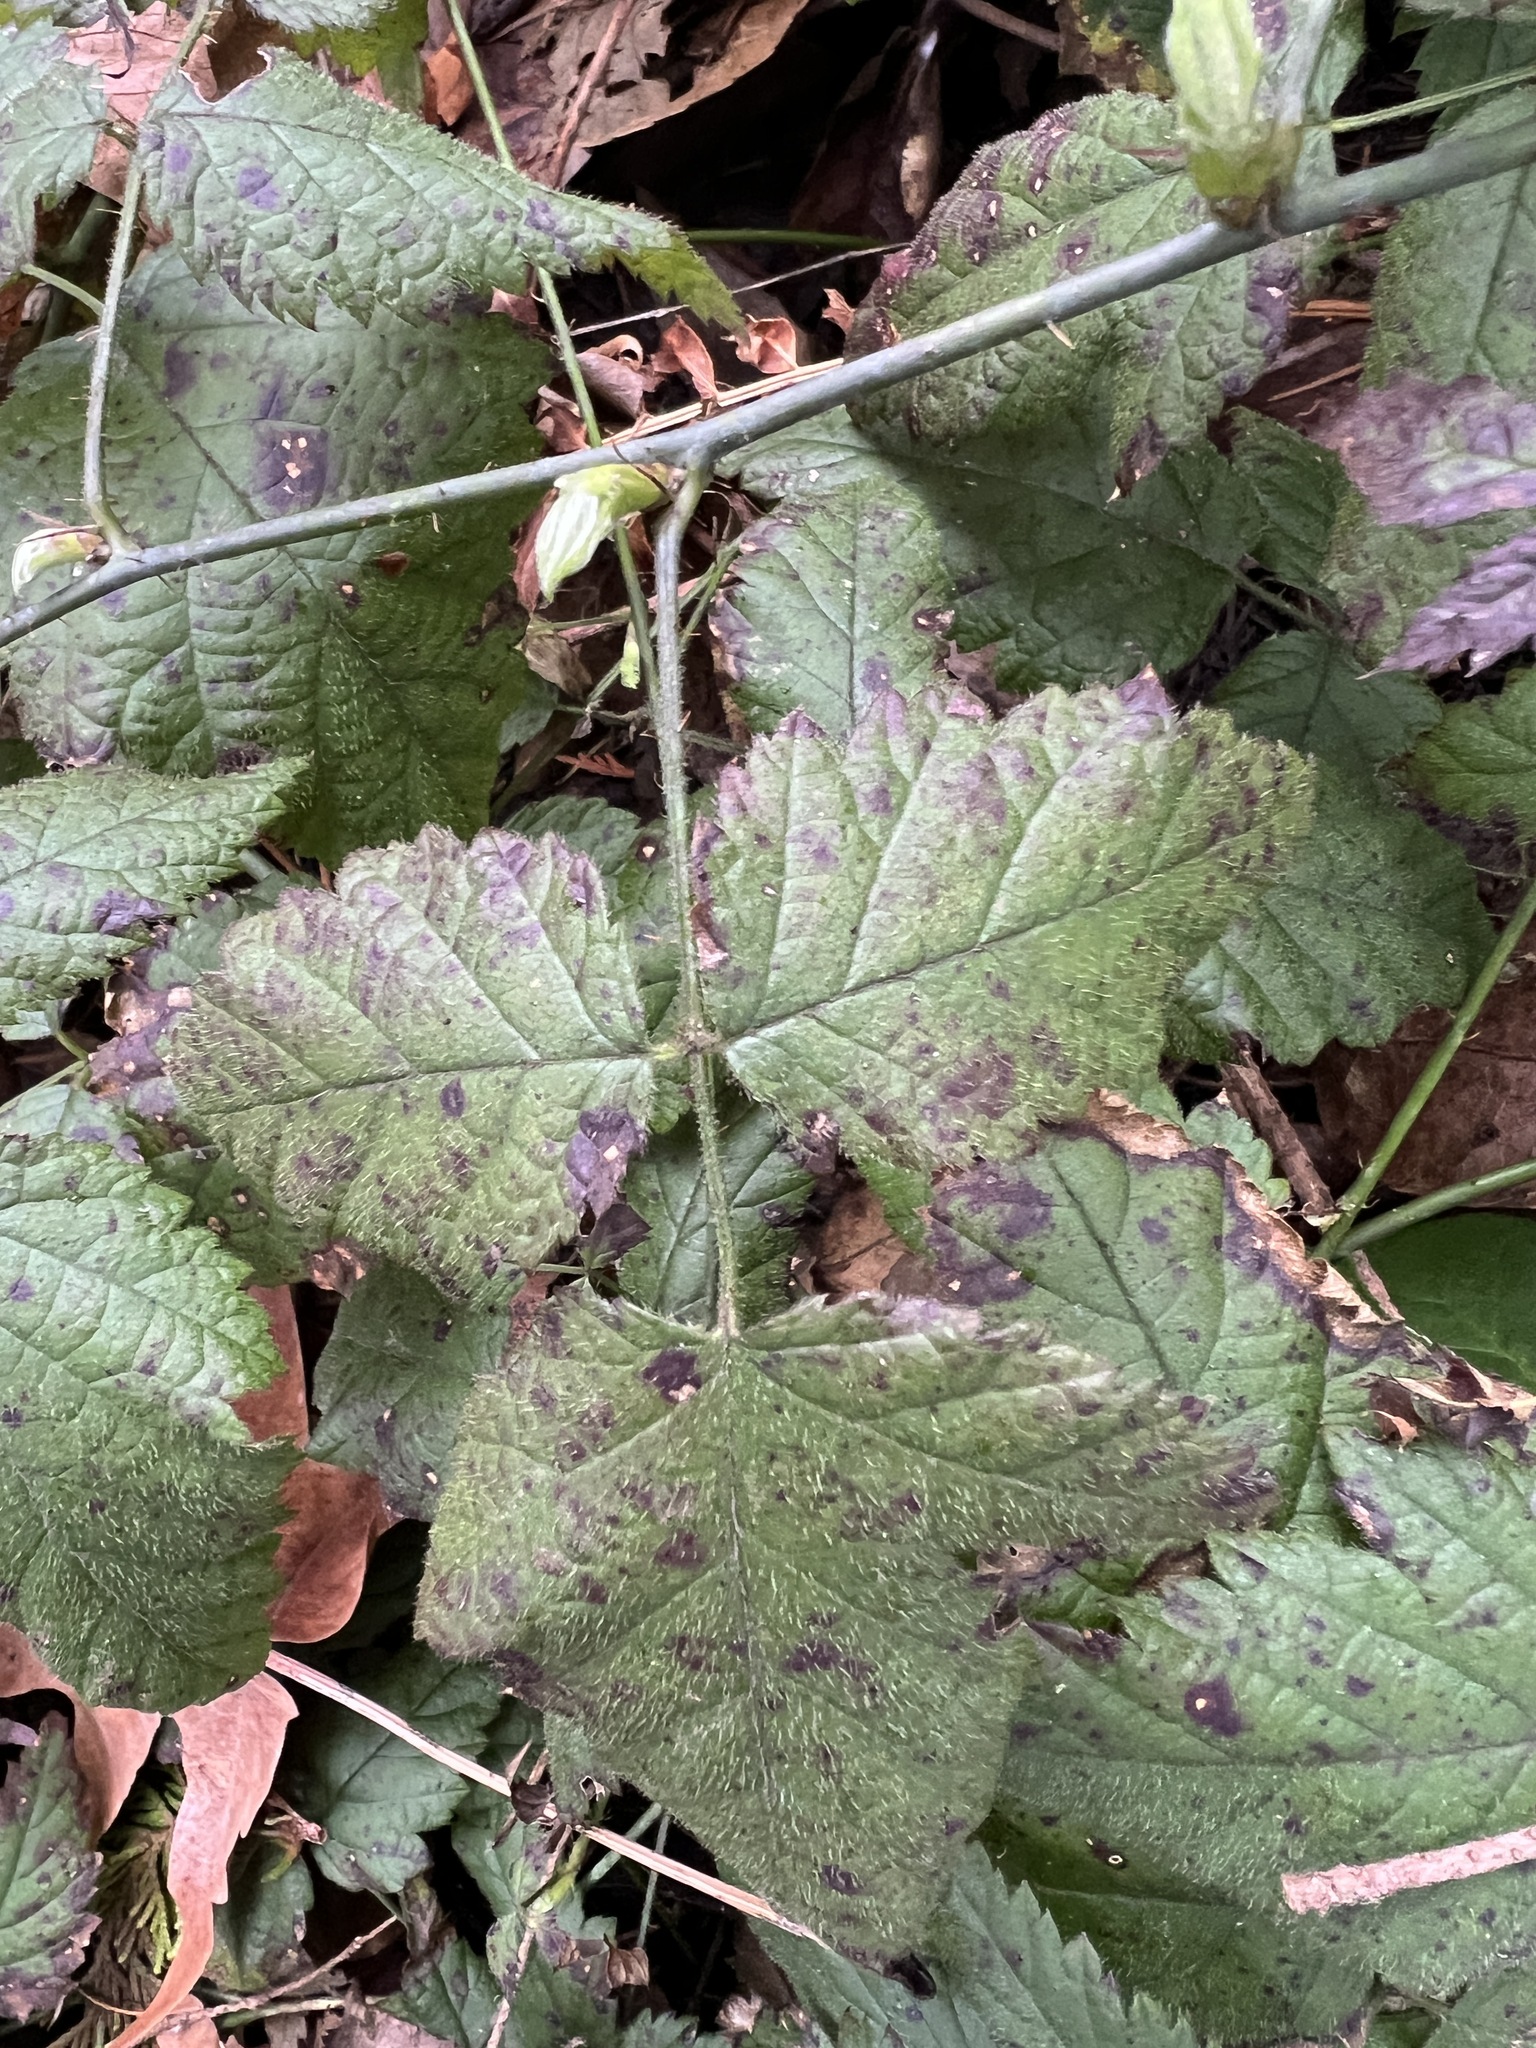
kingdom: Plantae
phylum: Tracheophyta
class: Magnoliopsida
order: Rosales
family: Rosaceae
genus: Rubus
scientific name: Rubus ursinus
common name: Pacific blackberry
